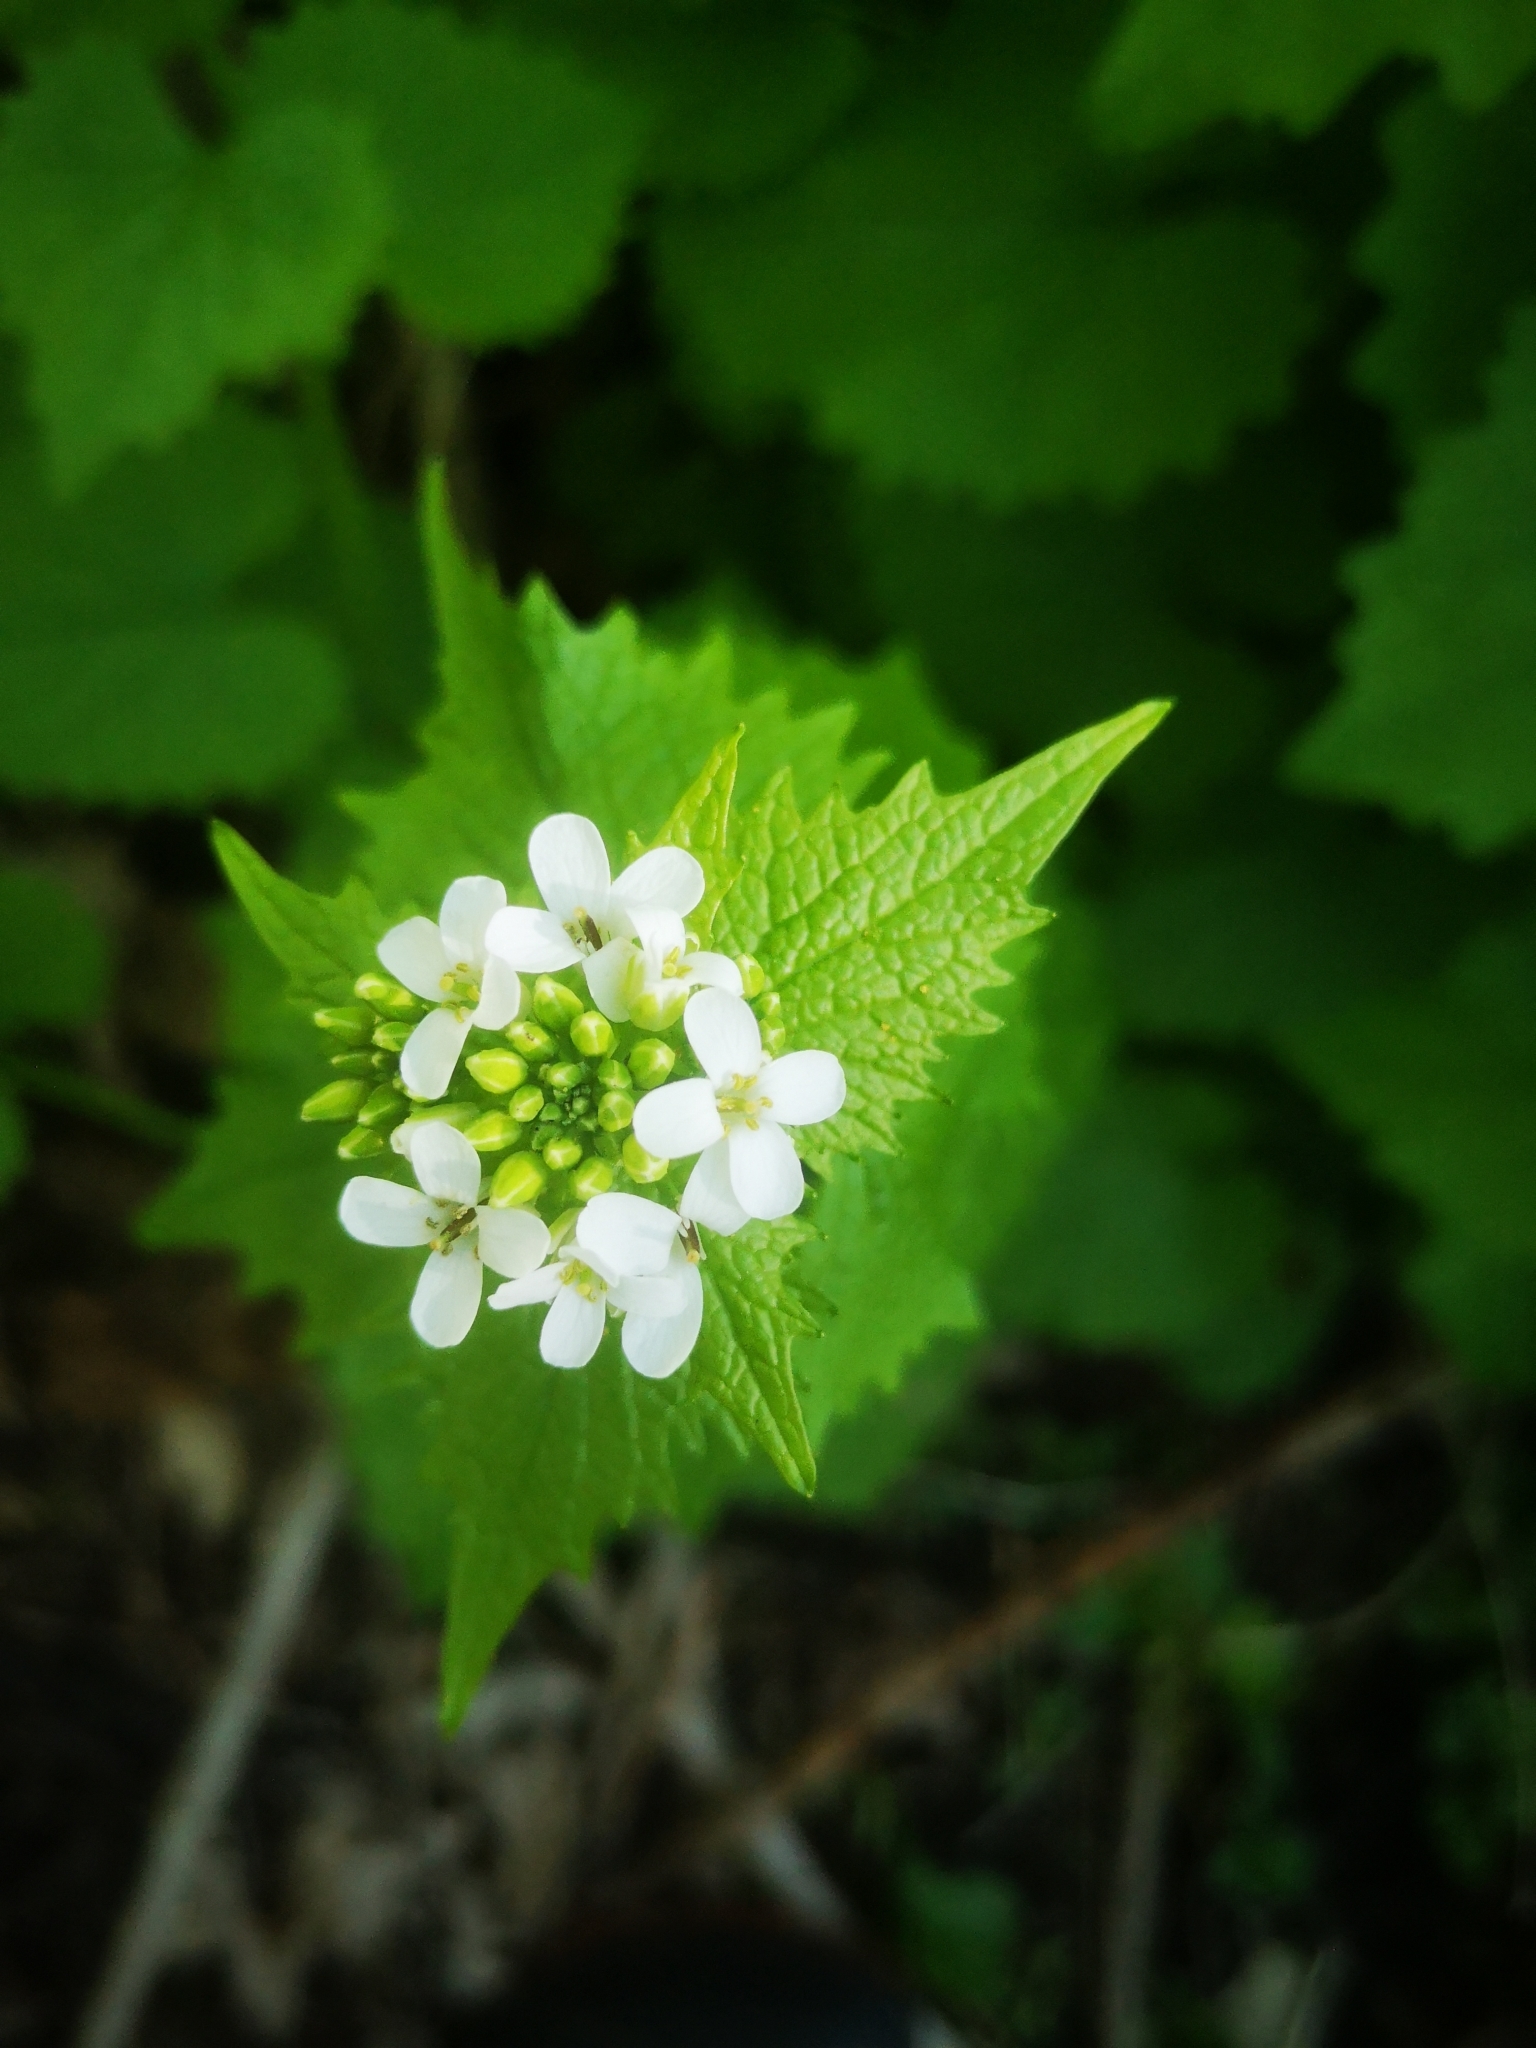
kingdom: Plantae
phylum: Tracheophyta
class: Magnoliopsida
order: Brassicales
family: Brassicaceae
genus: Alliaria
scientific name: Alliaria petiolata
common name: Garlic mustard
